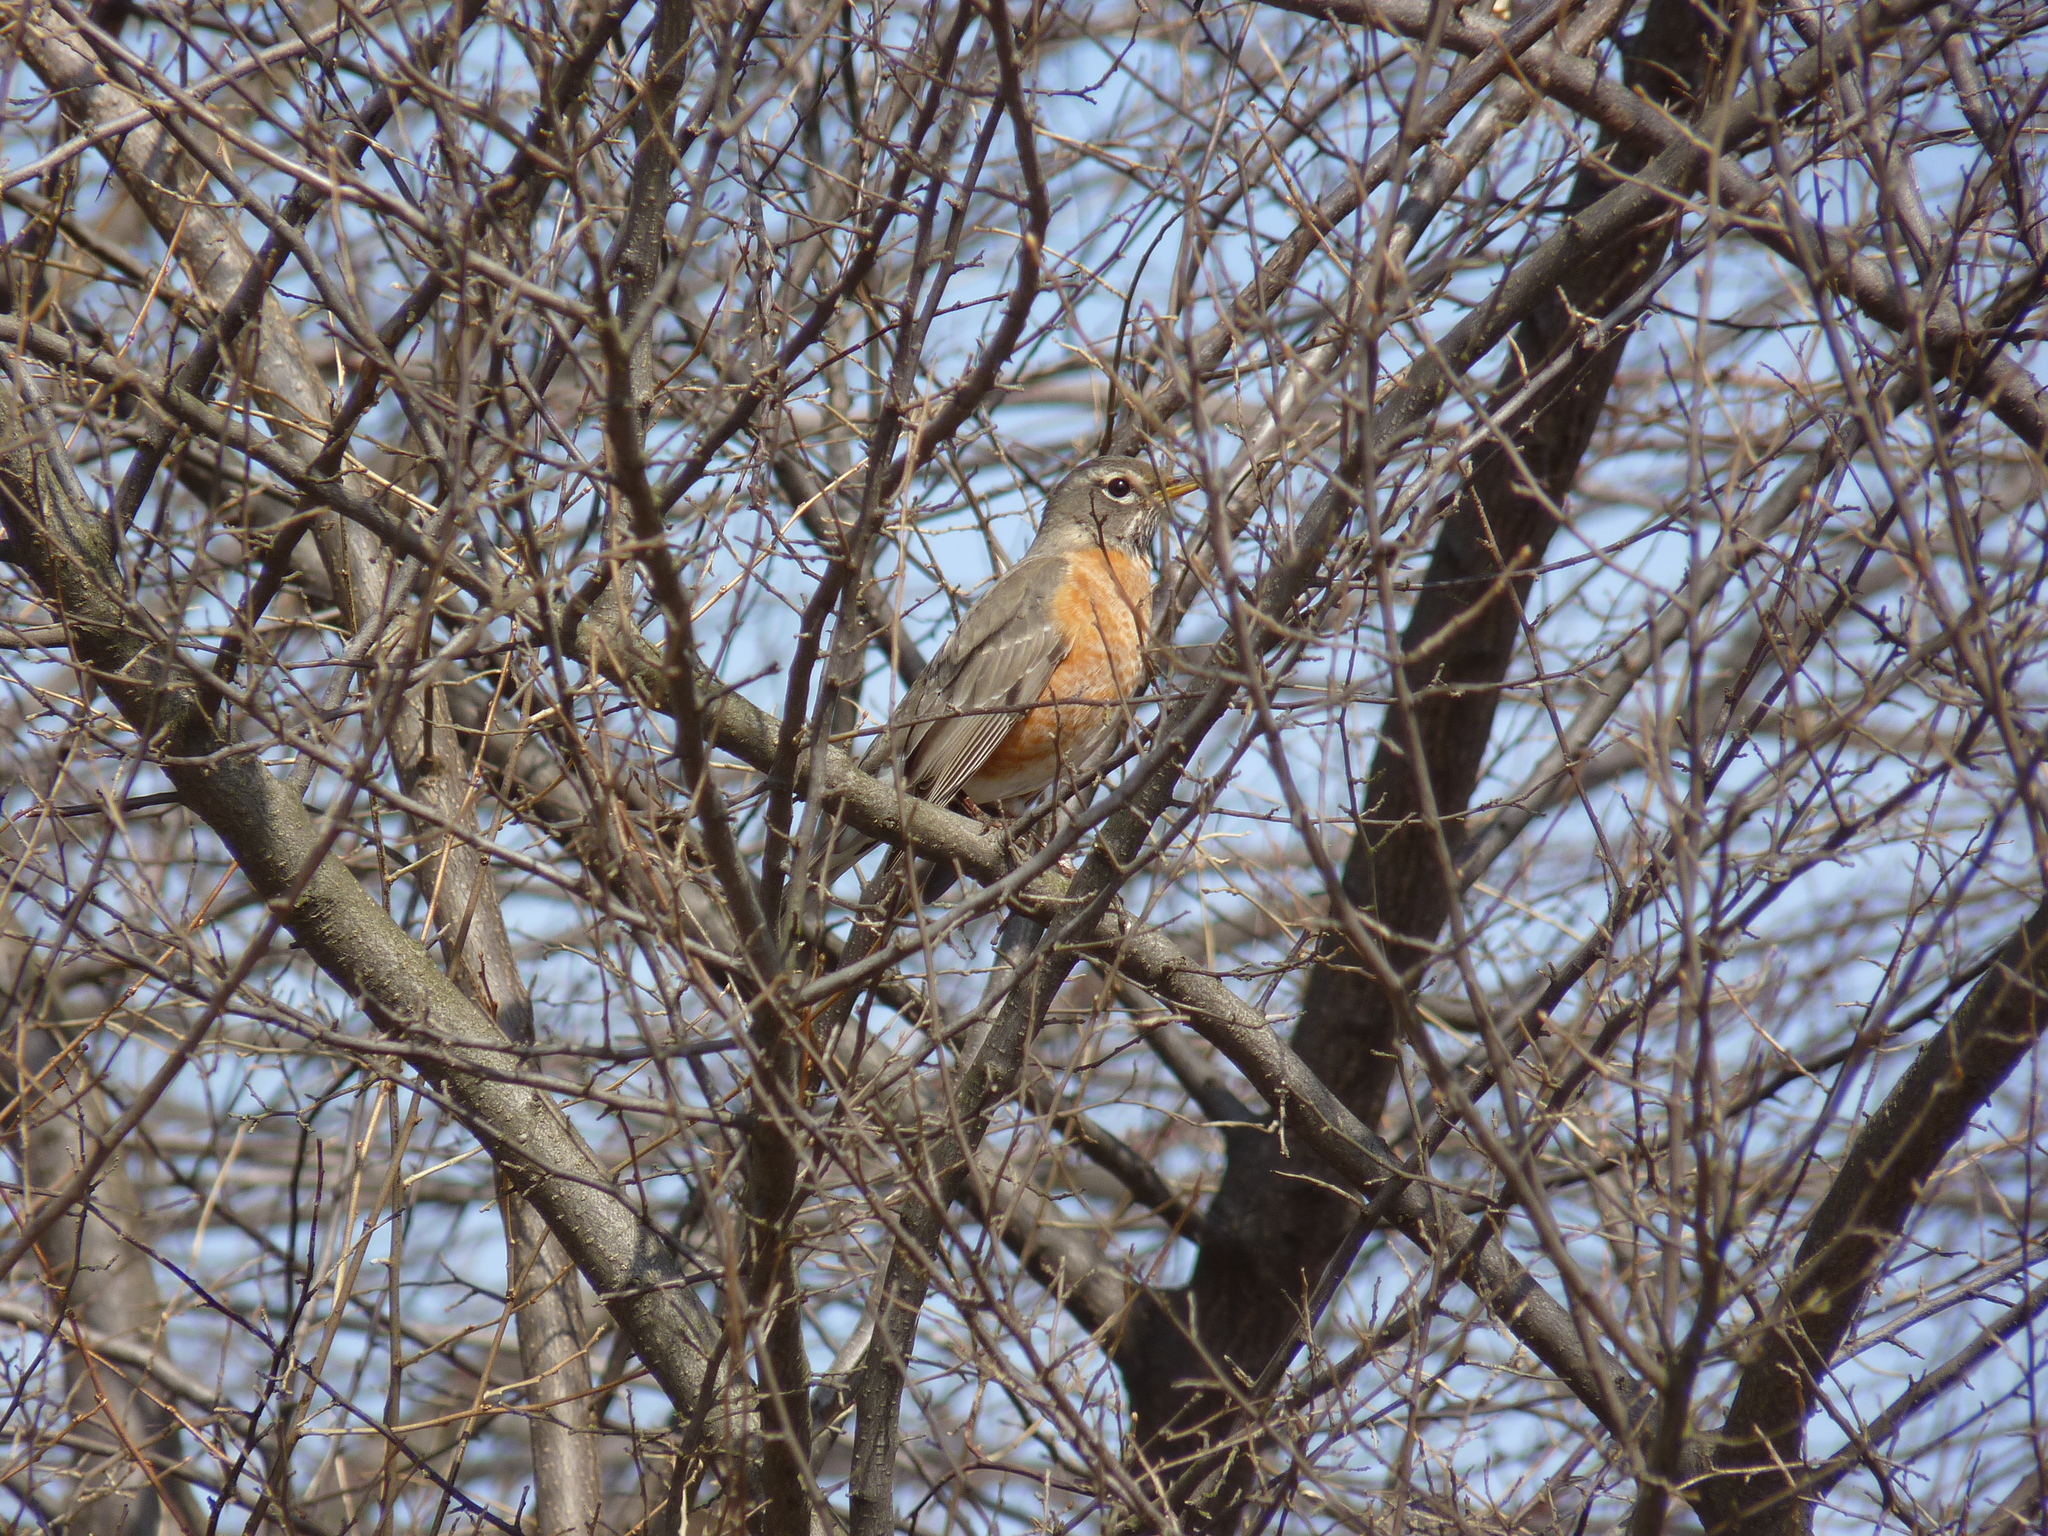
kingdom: Animalia
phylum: Chordata
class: Aves
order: Passeriformes
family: Turdidae
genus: Turdus
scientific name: Turdus migratorius
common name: American robin
